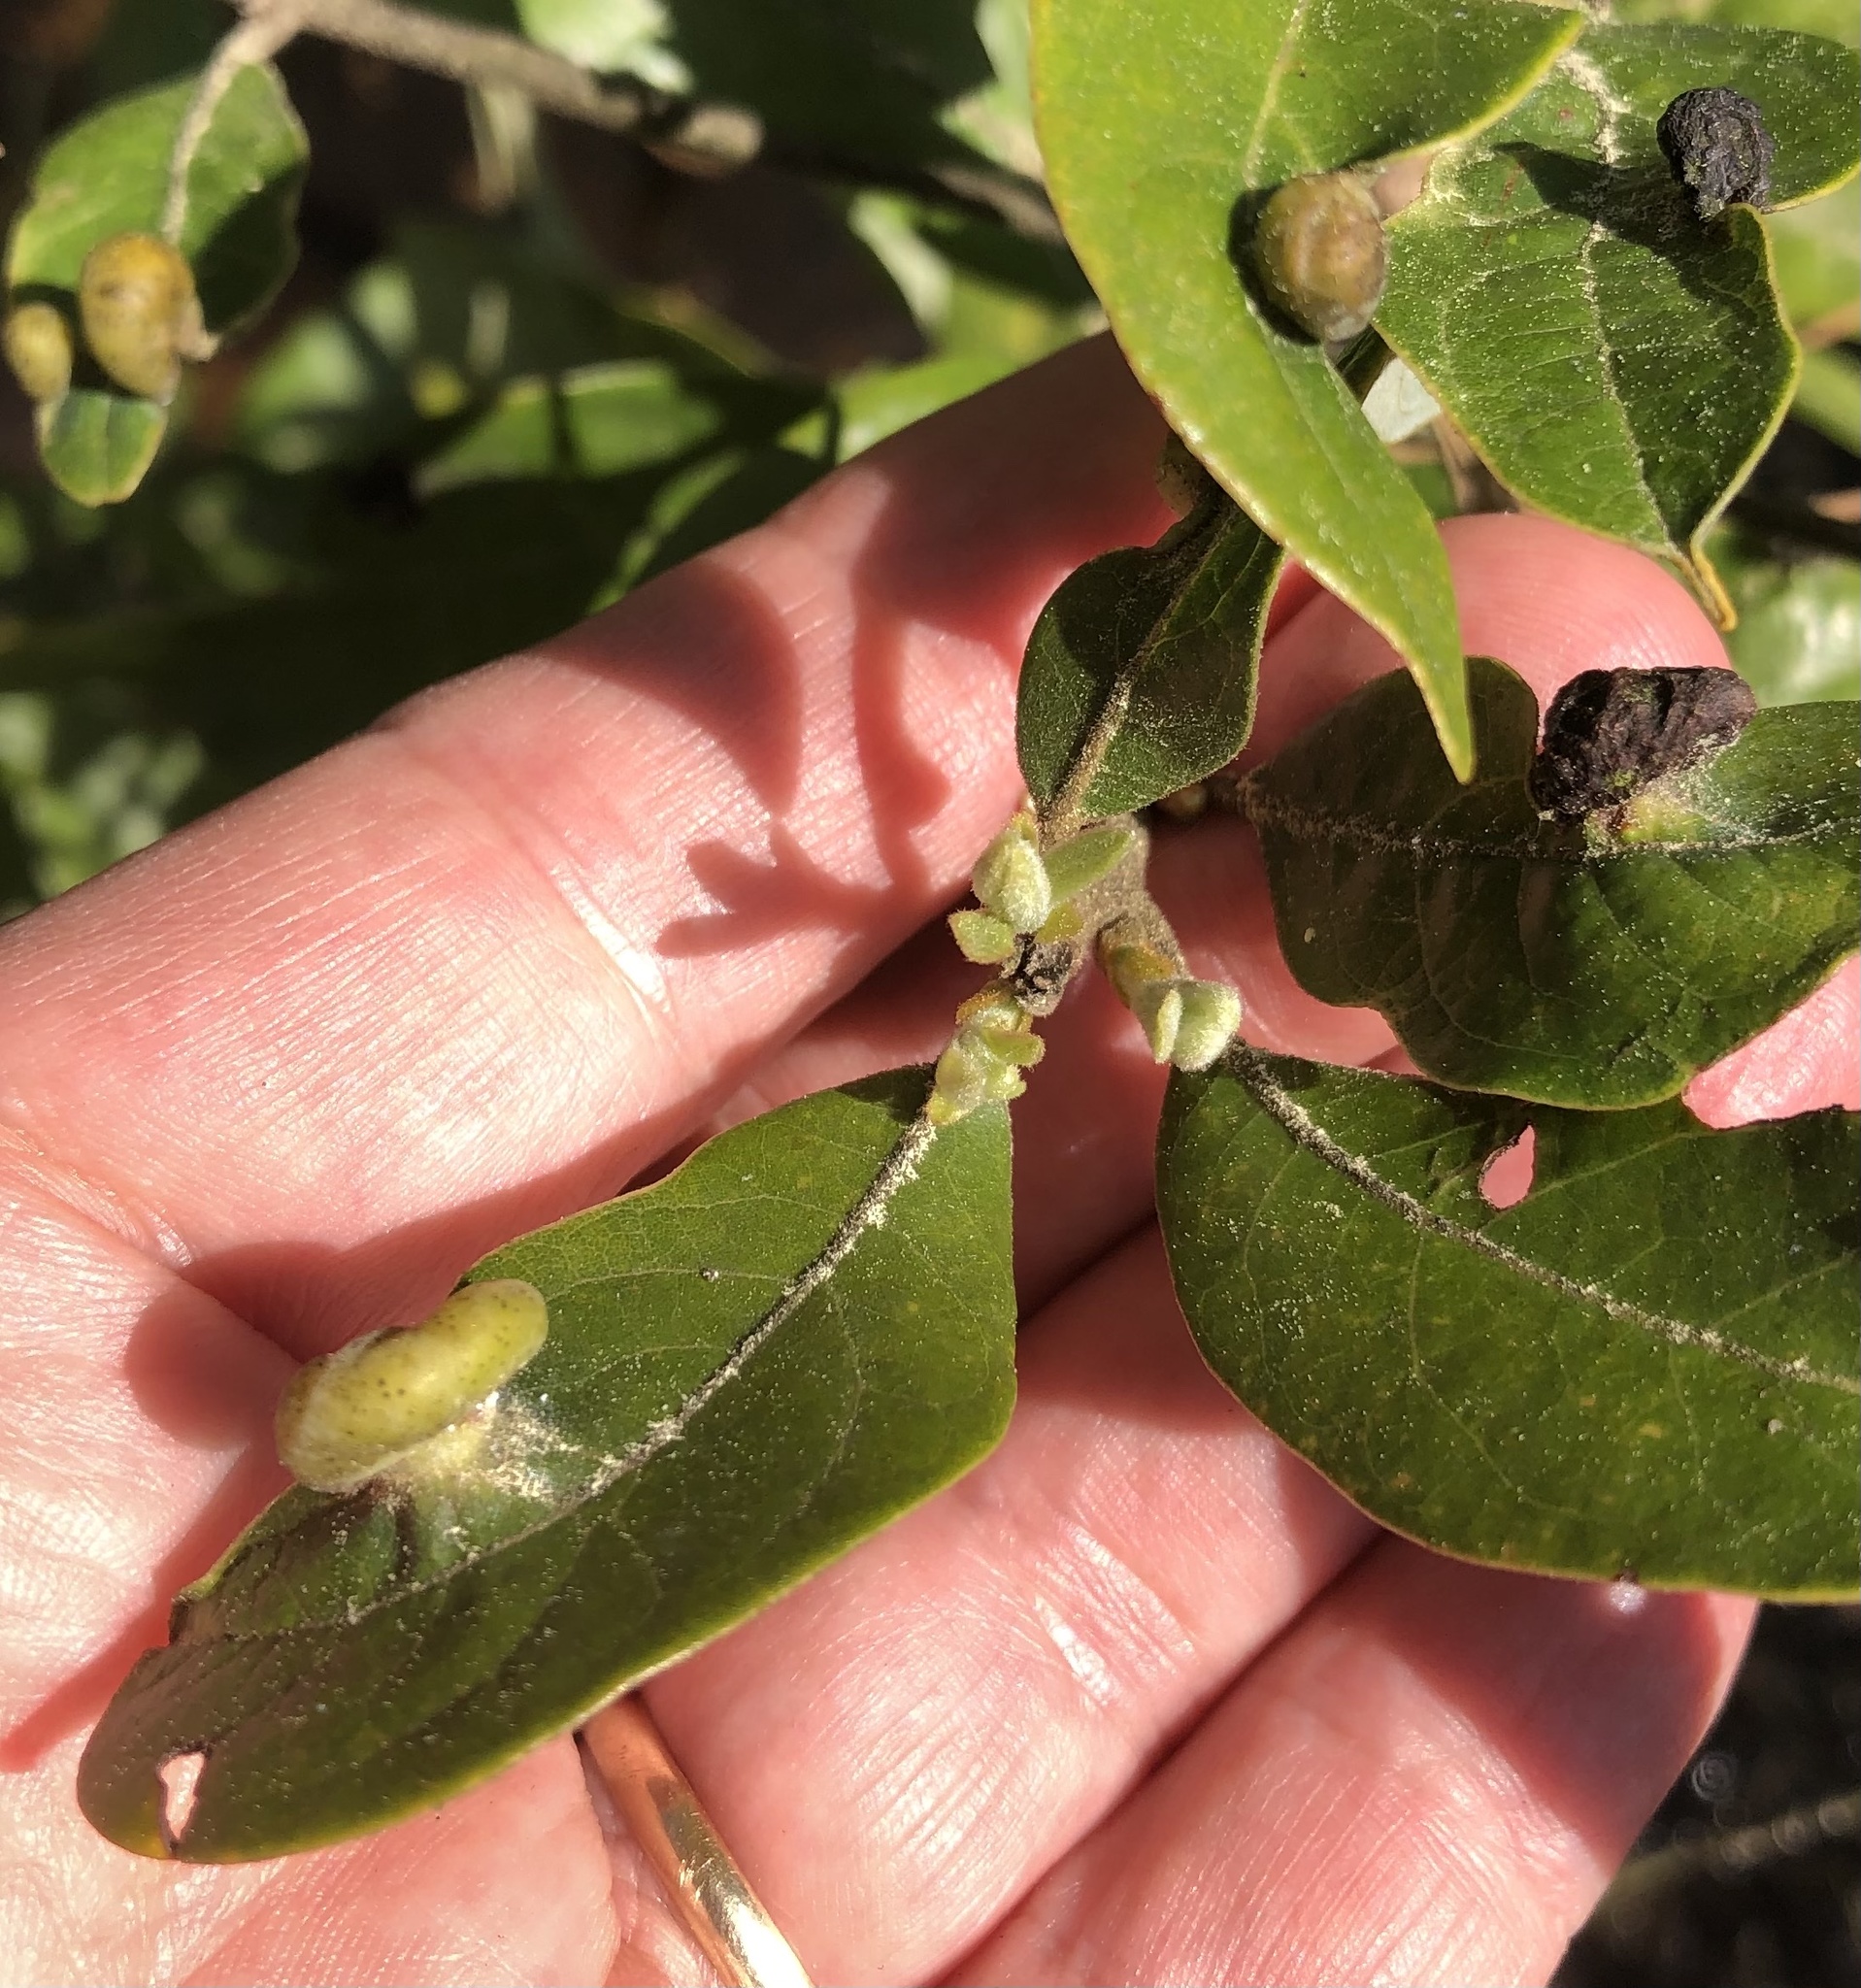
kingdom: Animalia
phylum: Arthropoda
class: Insecta
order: Hemiptera
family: Triozidae
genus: Trioza
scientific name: Trioza magnoliae
